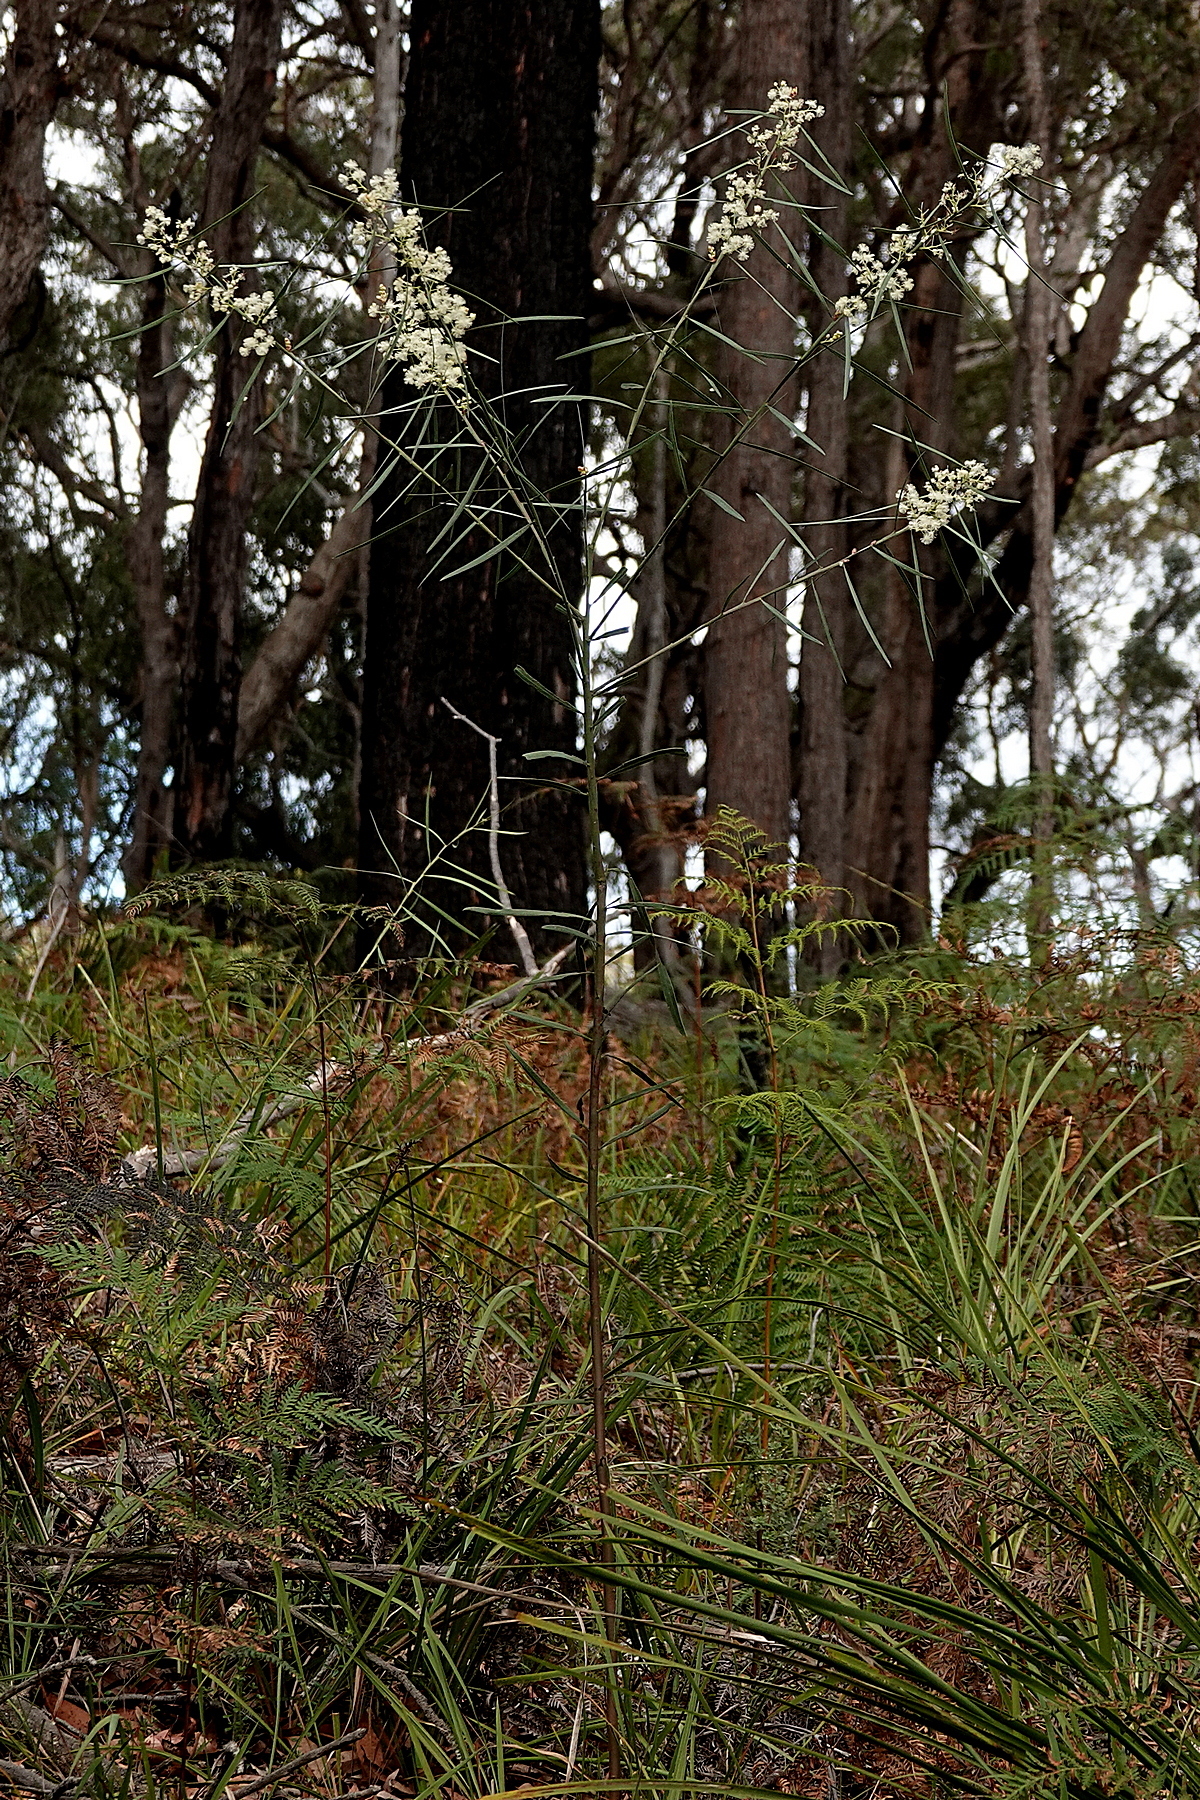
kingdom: Plantae
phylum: Tracheophyta
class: Magnoliopsida
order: Fabales
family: Fabaceae
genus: Acacia
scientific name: Acacia suaveolens
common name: Sweet acacia
